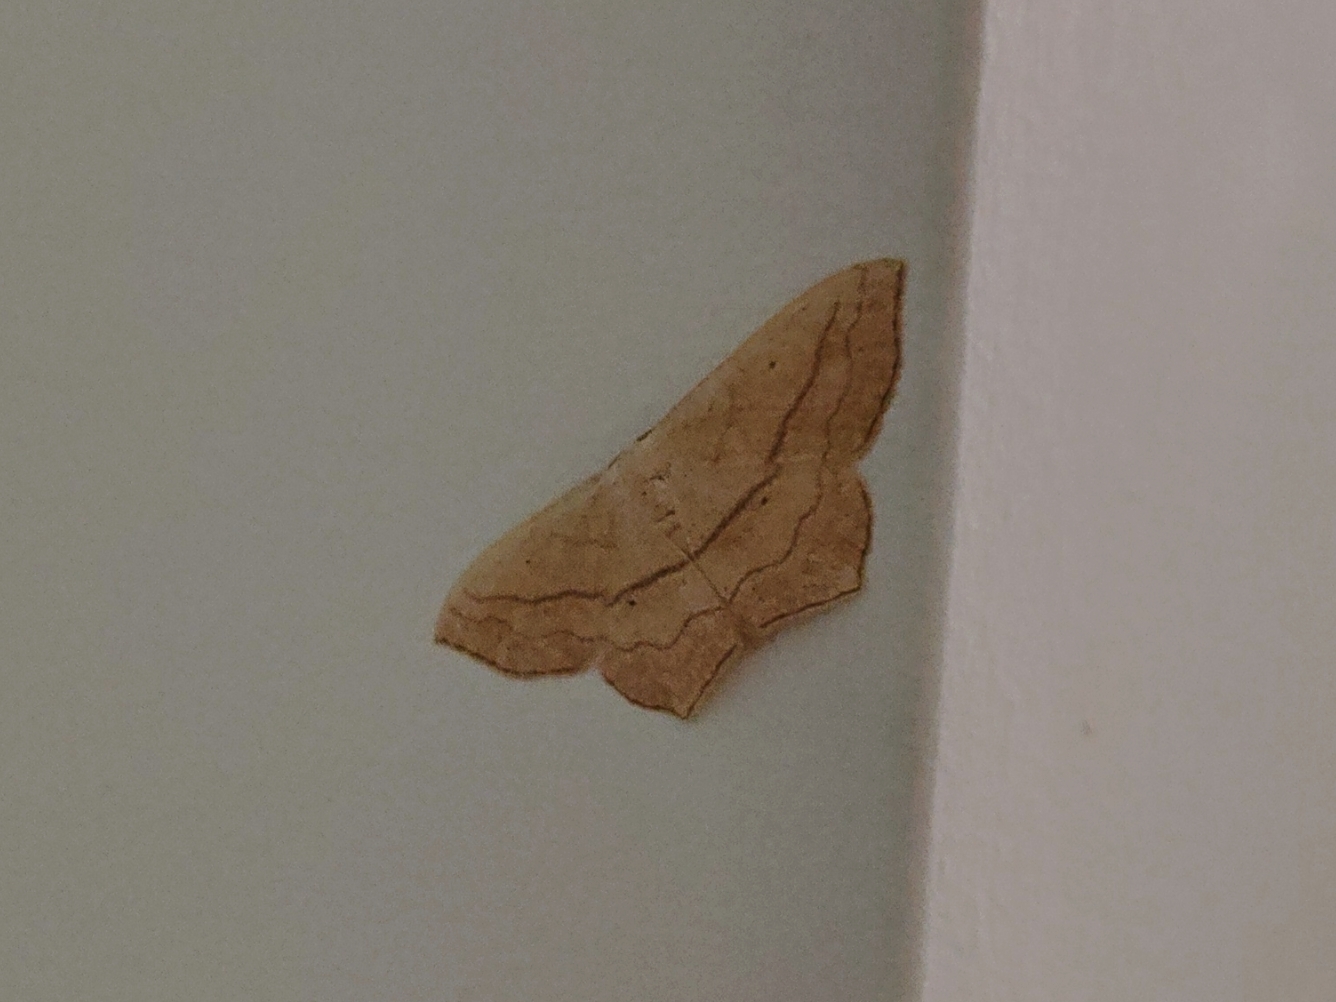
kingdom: Animalia
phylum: Arthropoda
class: Insecta
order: Lepidoptera
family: Geometridae
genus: Scopula
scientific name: Scopula imitaria
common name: Small blood-vein
